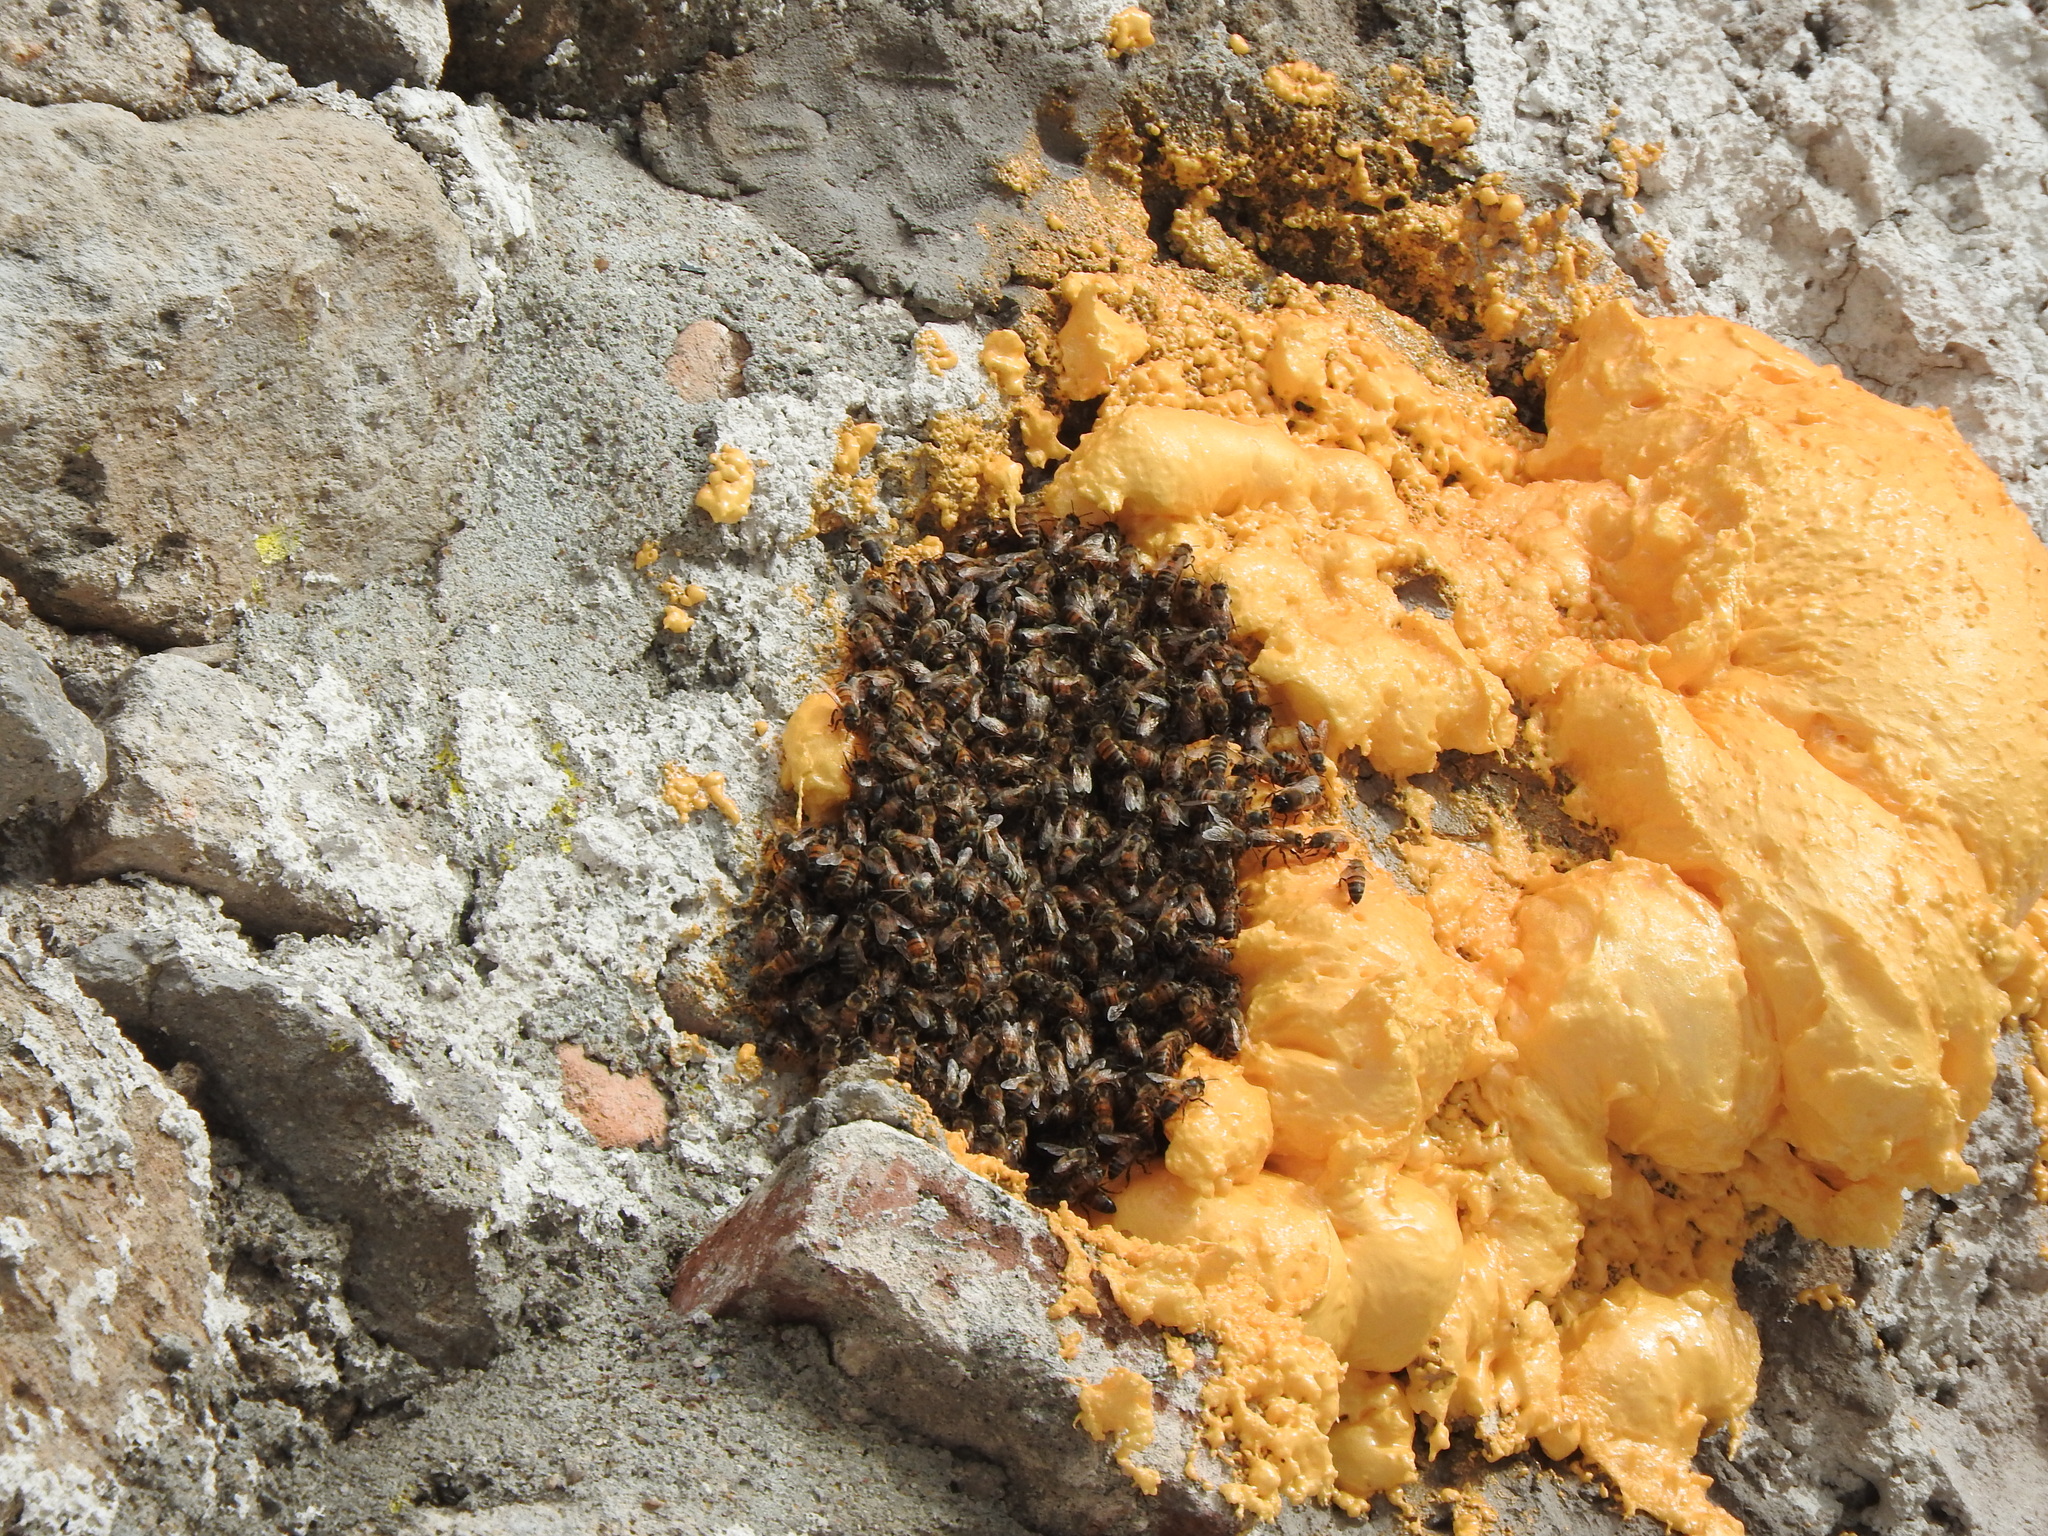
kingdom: Animalia
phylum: Arthropoda
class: Insecta
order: Hymenoptera
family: Apidae
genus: Apis
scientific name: Apis mellifera
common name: Honey bee
